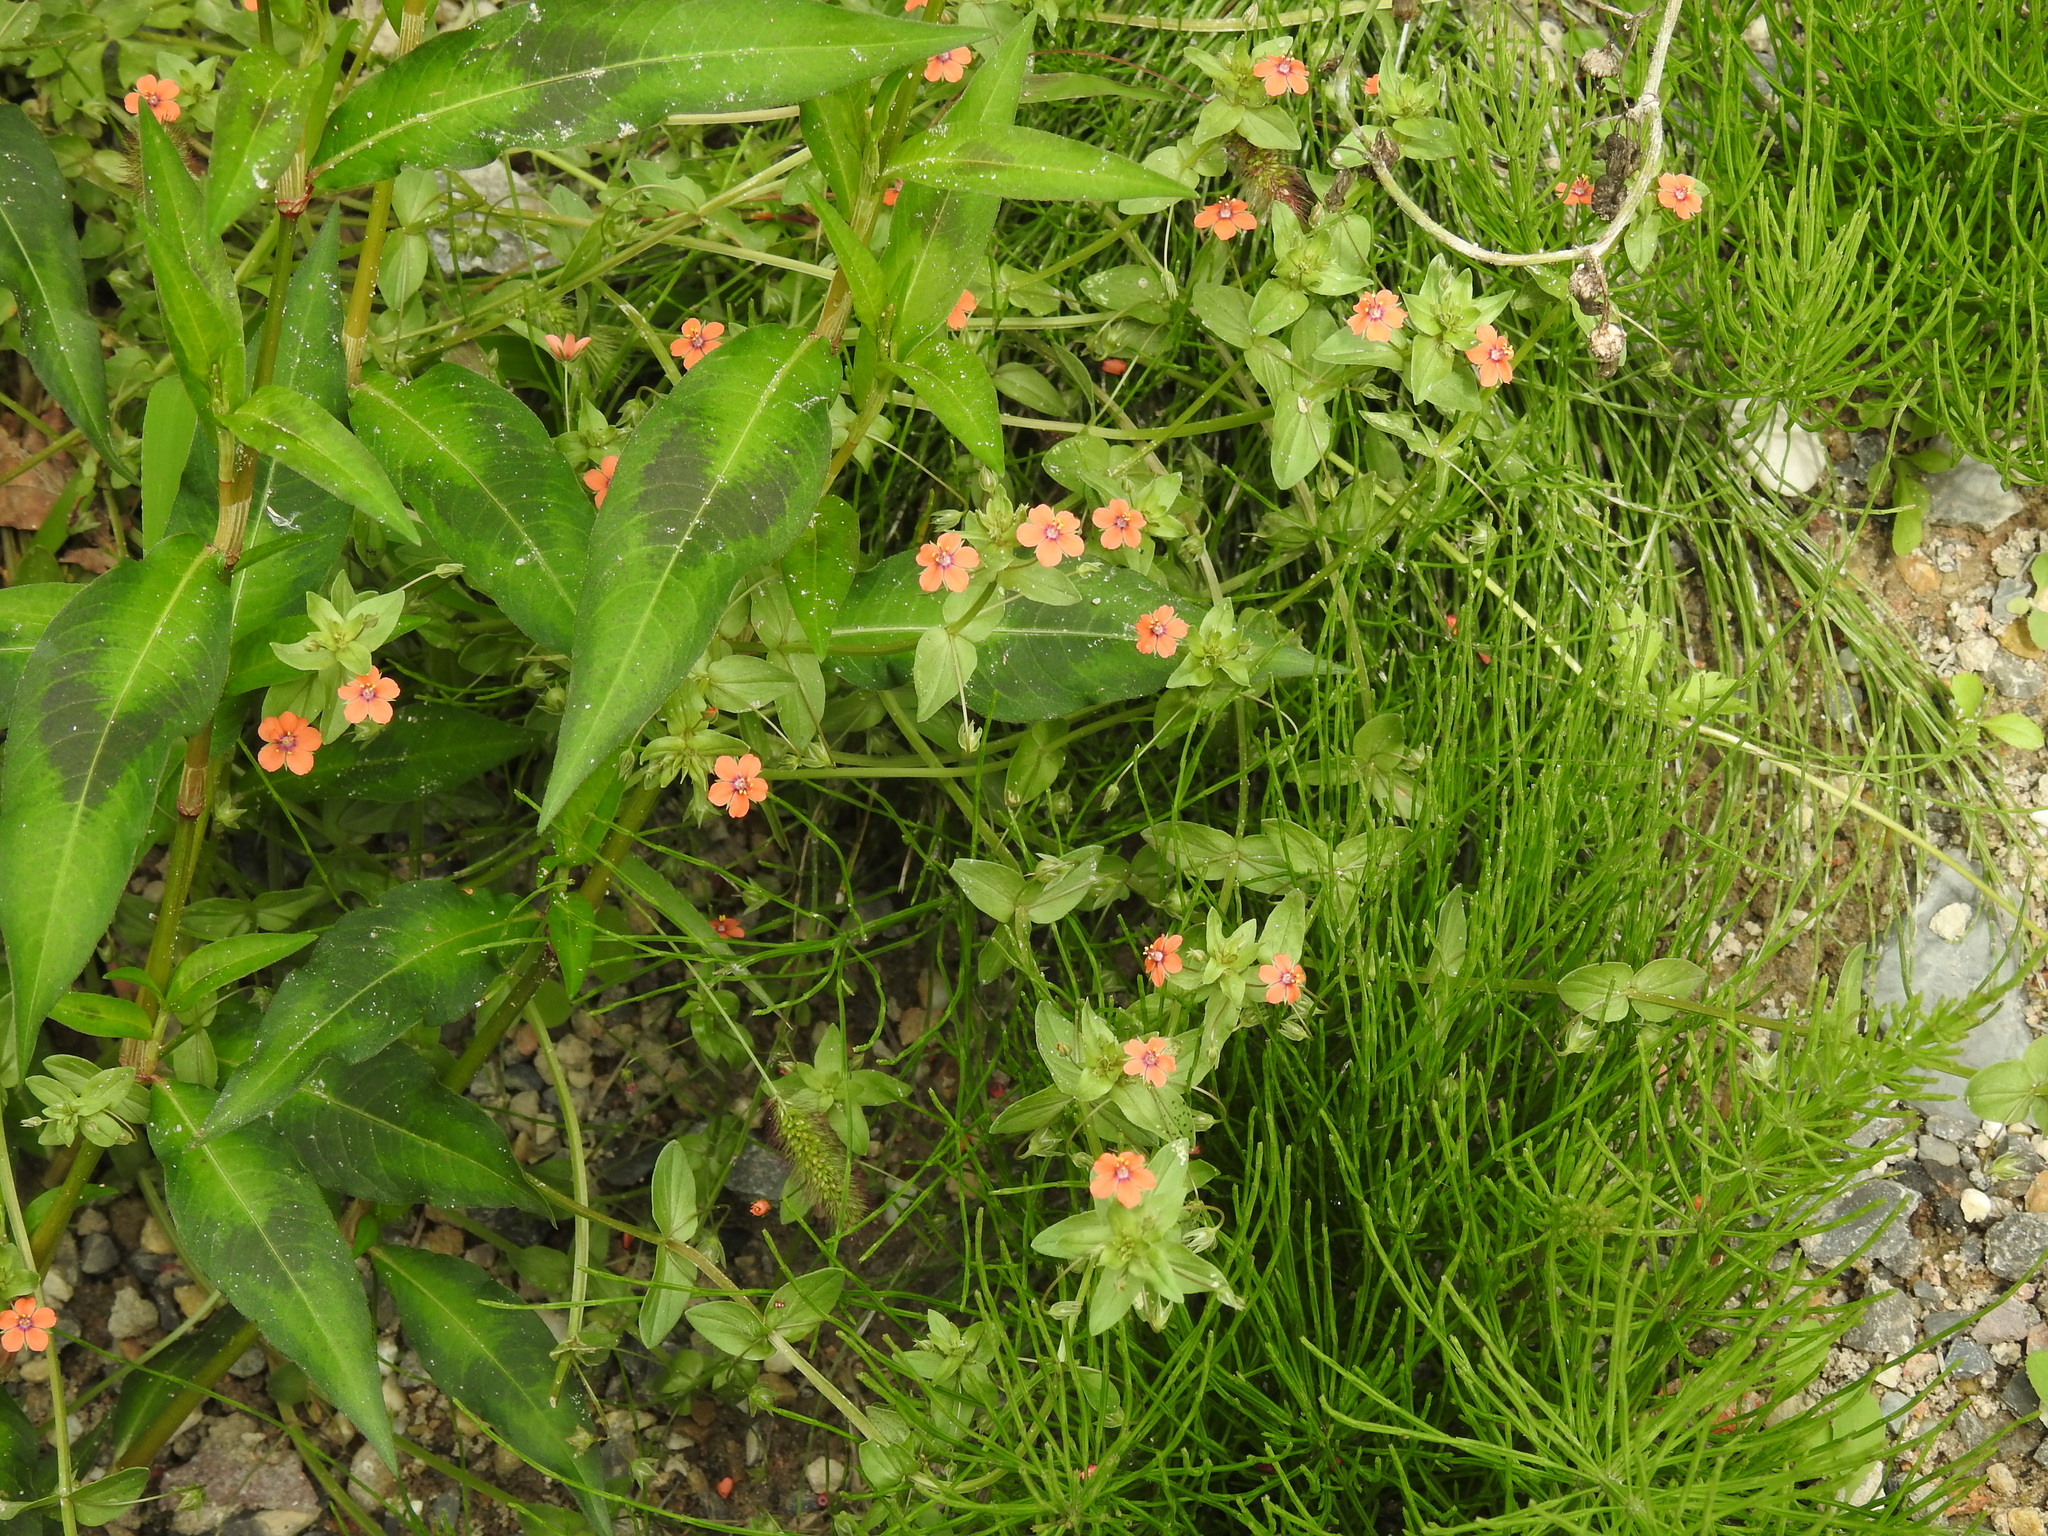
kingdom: Plantae
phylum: Tracheophyta
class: Magnoliopsida
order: Ericales
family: Primulaceae
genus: Lysimachia
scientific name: Lysimachia arvensis
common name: Scarlet pimpernel
